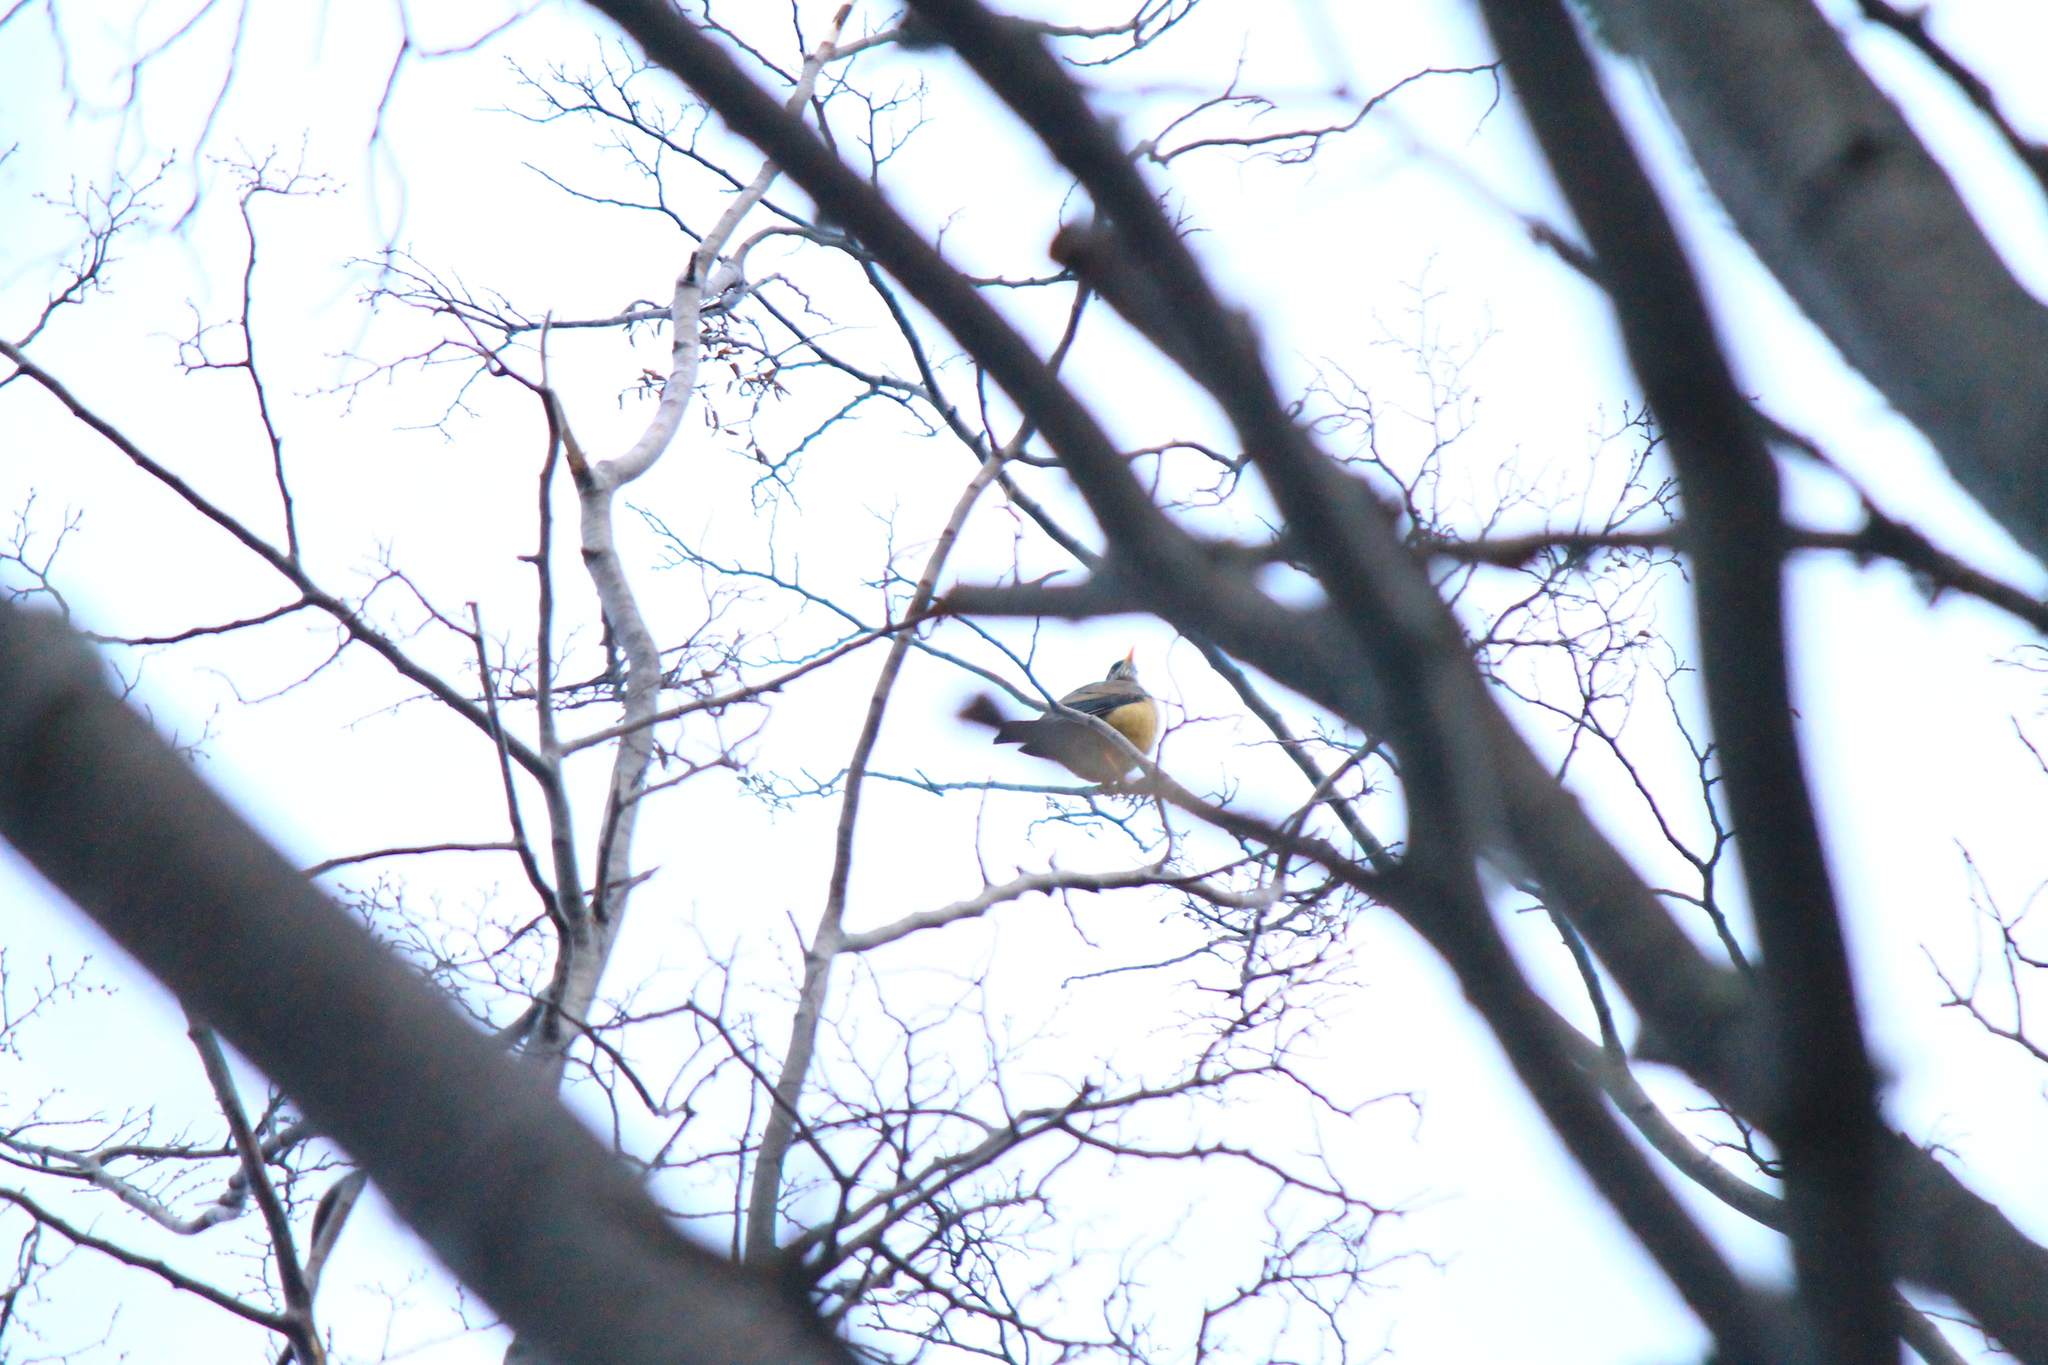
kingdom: Animalia
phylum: Chordata
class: Aves
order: Passeriformes
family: Turdidae
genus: Turdus
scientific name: Turdus falcklandii
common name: Austral thrush
